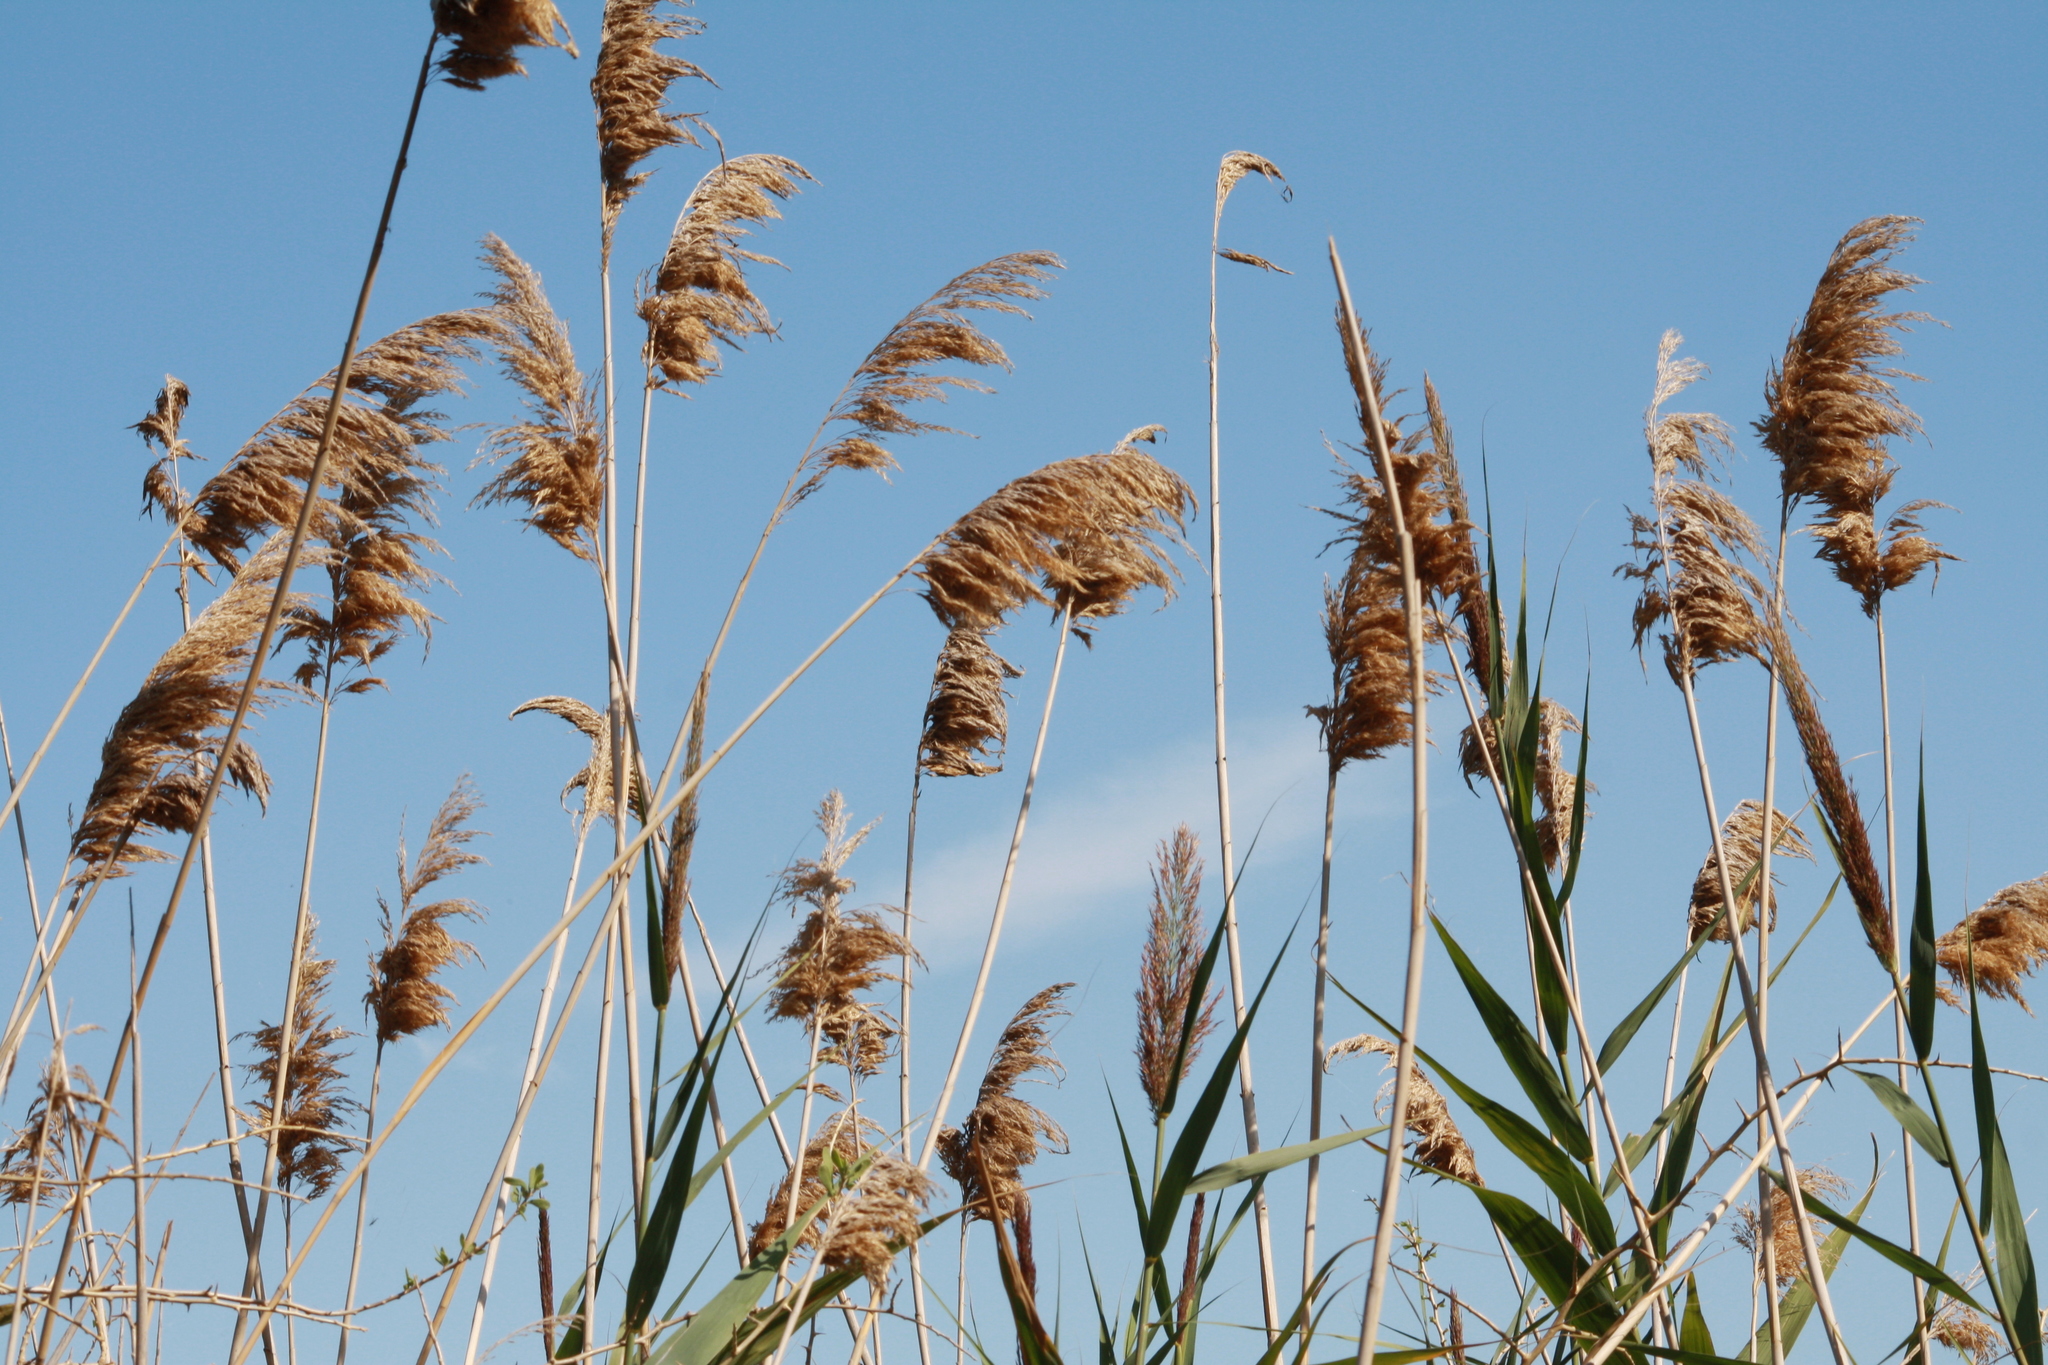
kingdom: Plantae
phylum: Tracheophyta
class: Liliopsida
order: Poales
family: Poaceae
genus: Phragmites
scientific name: Phragmites australis
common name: Common reed
